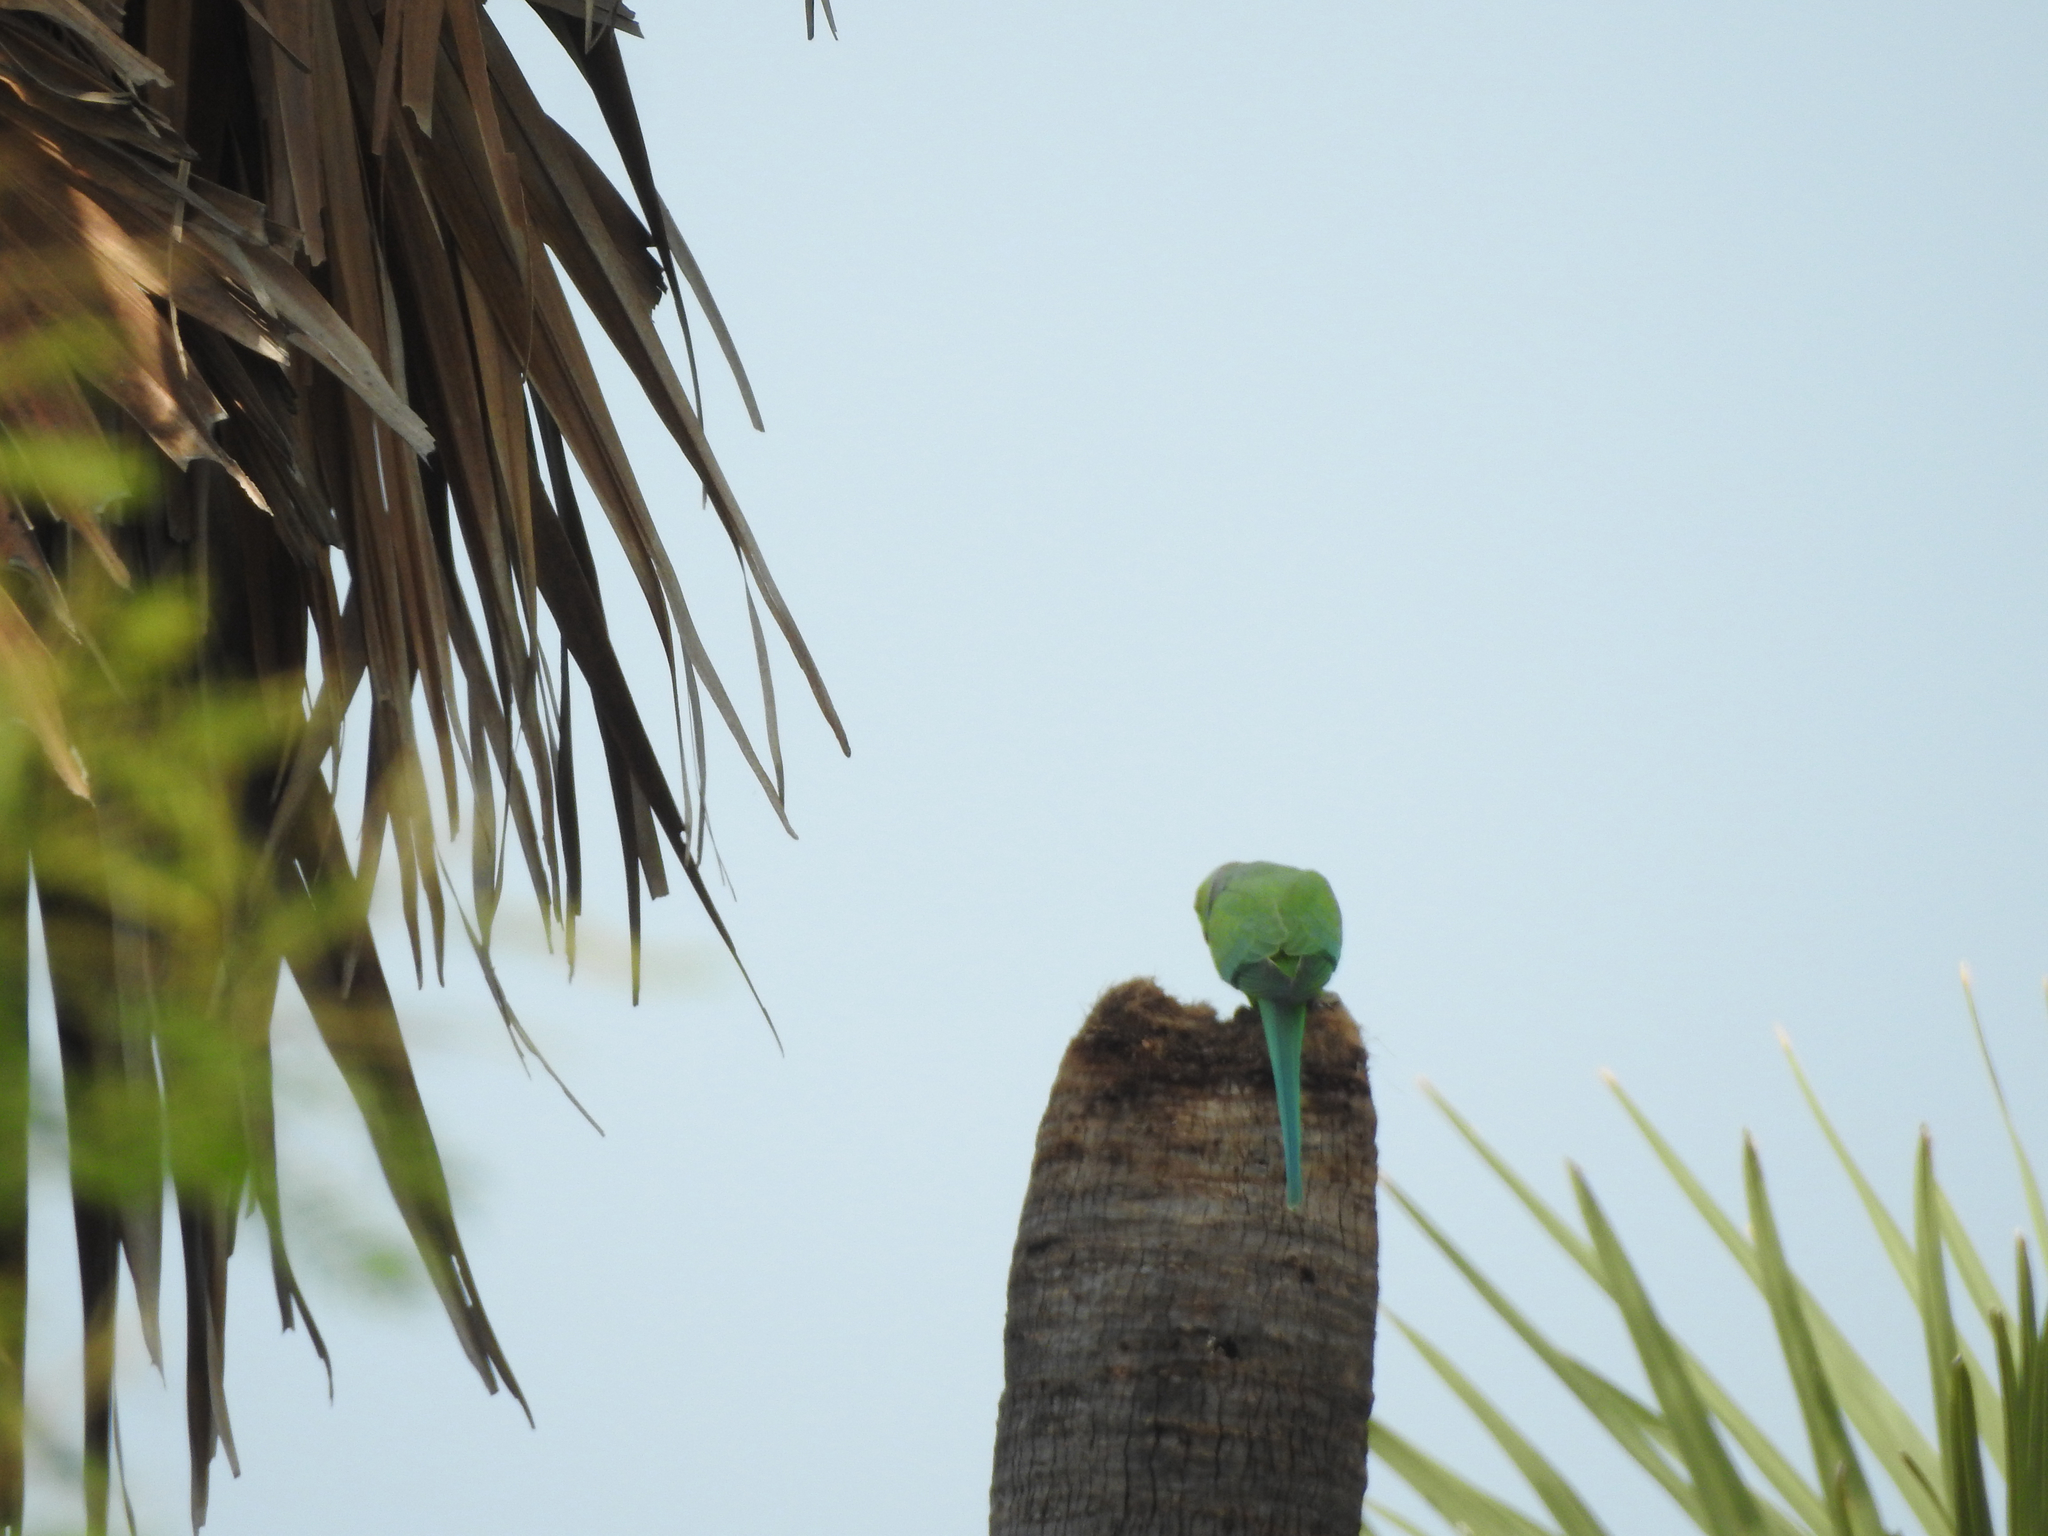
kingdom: Animalia
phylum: Chordata
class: Aves
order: Psittaciformes
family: Psittacidae
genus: Psittacula
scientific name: Psittacula krameri
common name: Rose-ringed parakeet
